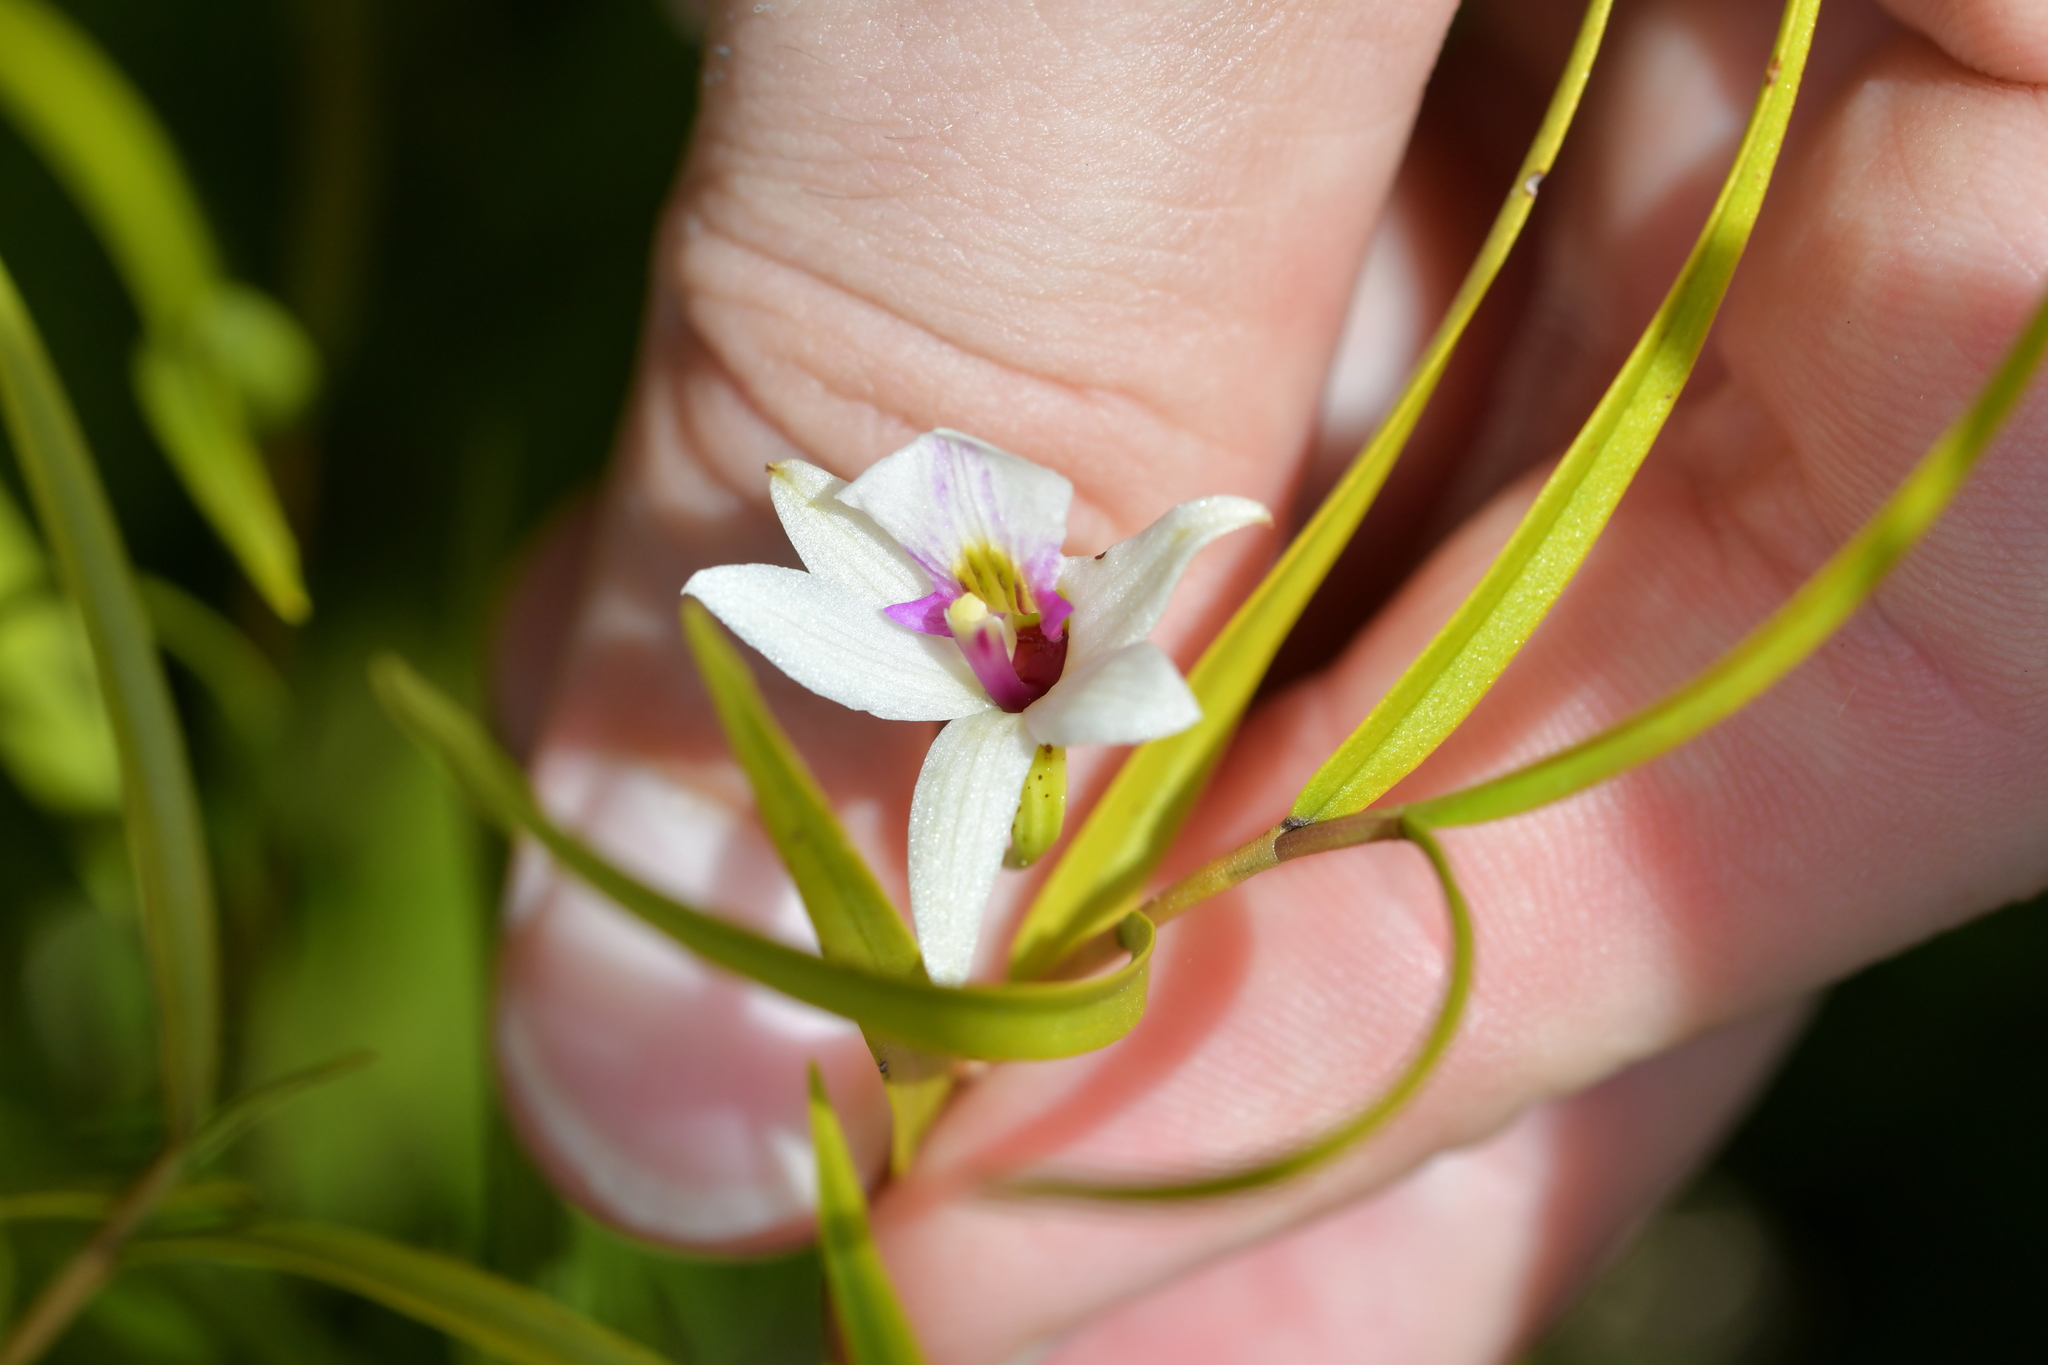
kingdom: Plantae
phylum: Tracheophyta
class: Liliopsida
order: Asparagales
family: Orchidaceae
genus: Dendrobium
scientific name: Dendrobium cunninghamii
